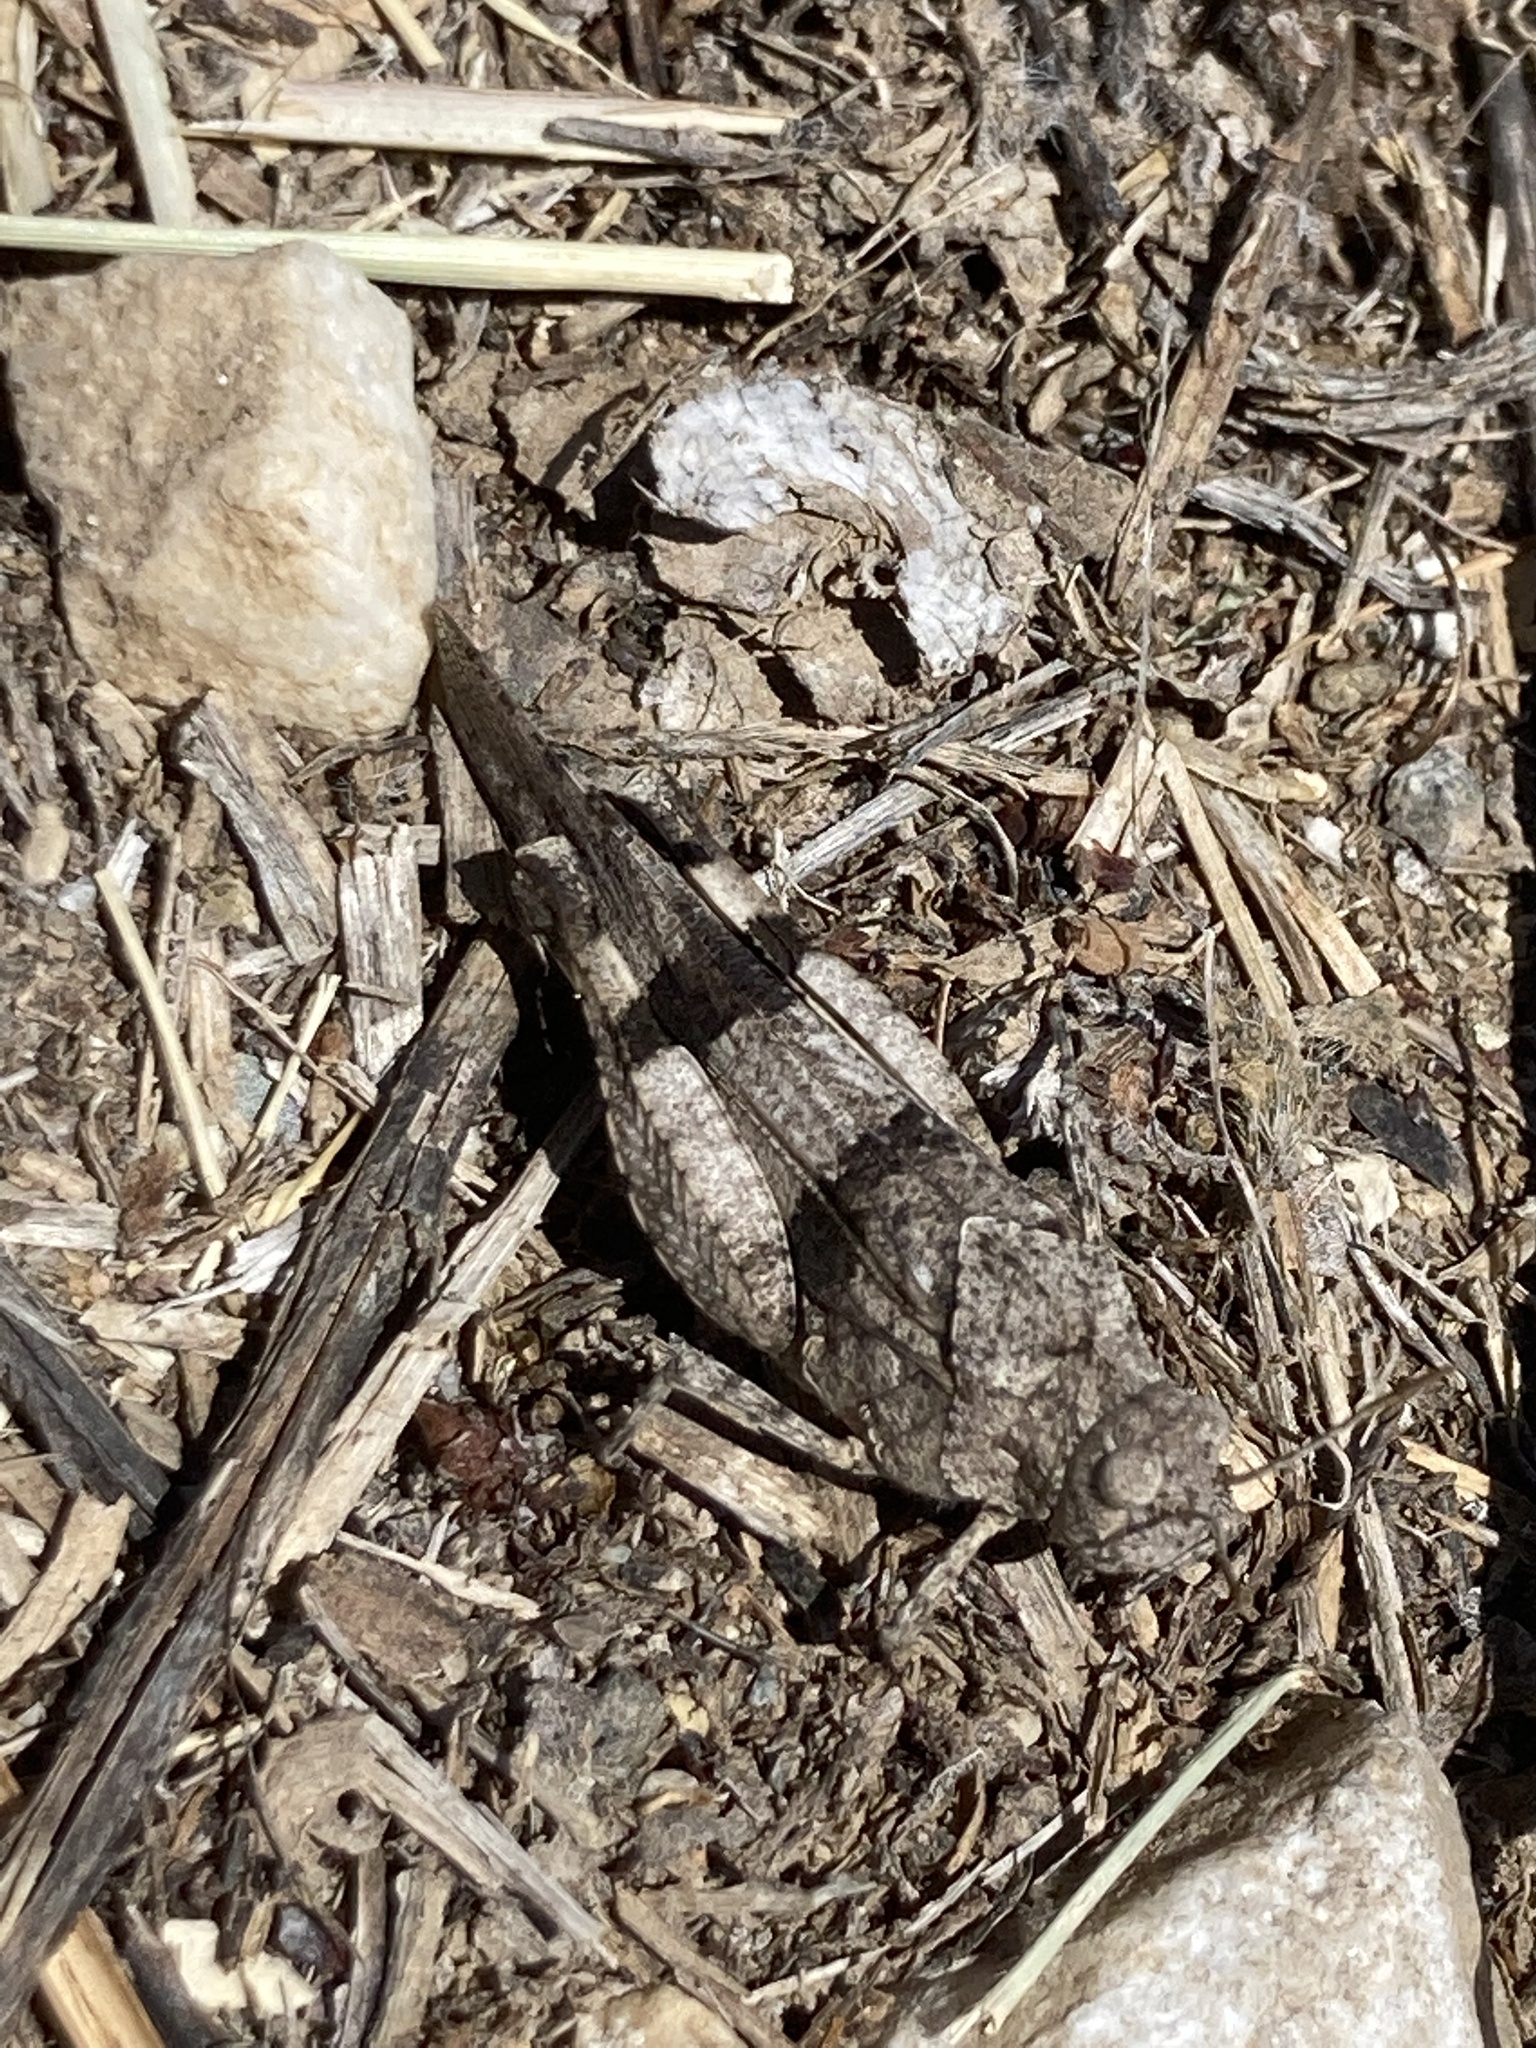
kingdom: Animalia
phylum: Arthropoda
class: Insecta
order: Orthoptera
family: Acrididae
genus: Oedipoda
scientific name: Oedipoda caerulescens
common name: Blue-winged grasshopper
